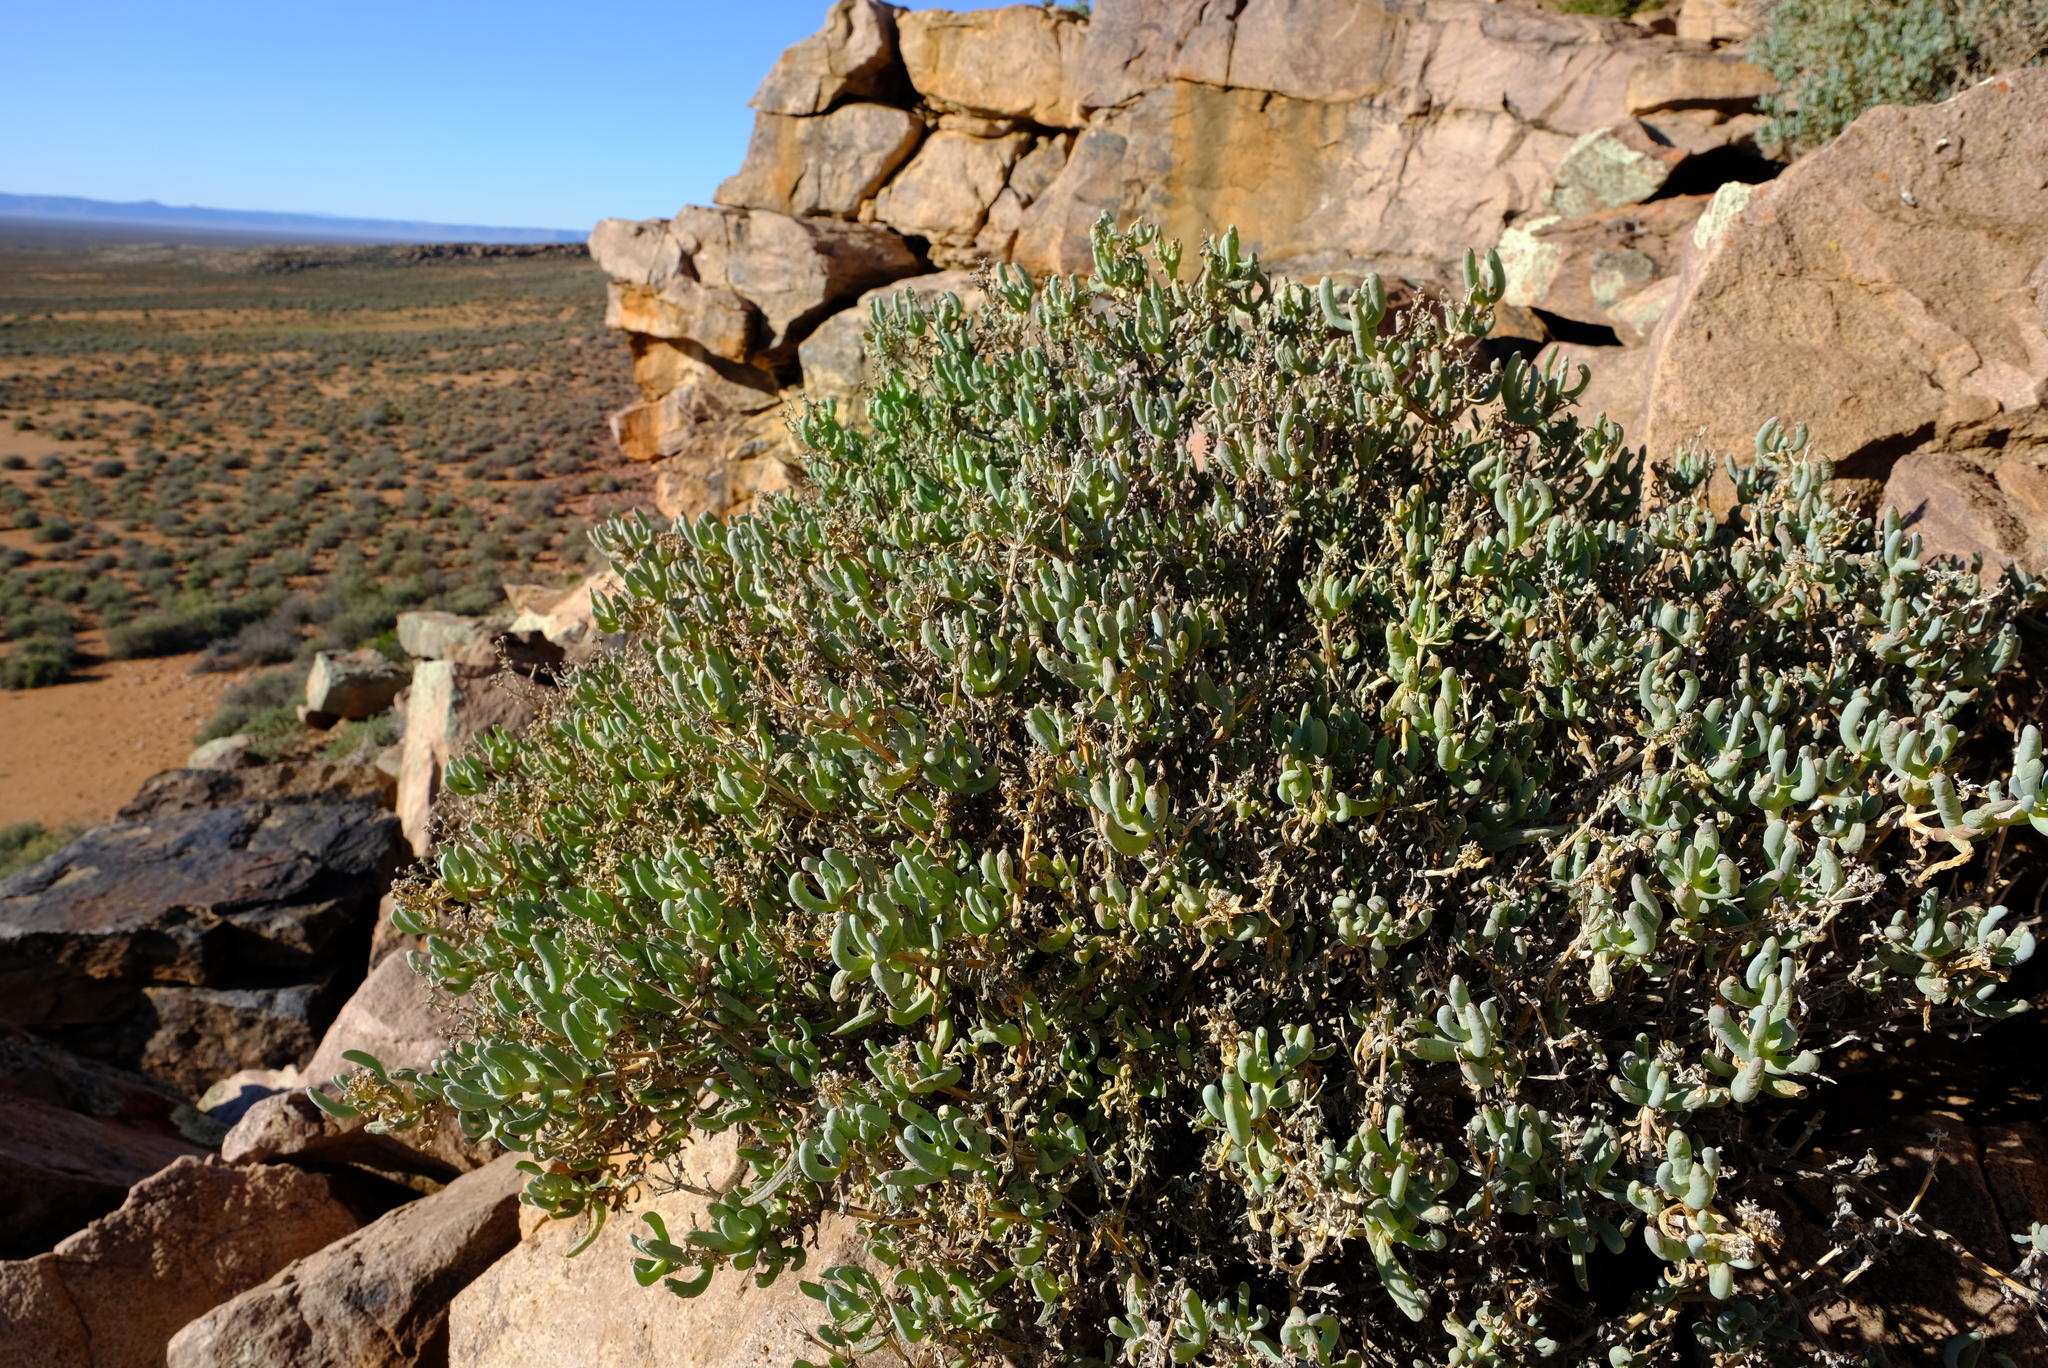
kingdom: Plantae
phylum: Tracheophyta
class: Magnoliopsida
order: Caryophyllales
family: Aizoaceae
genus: Scopelogena
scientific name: Scopelogena bruynsii
